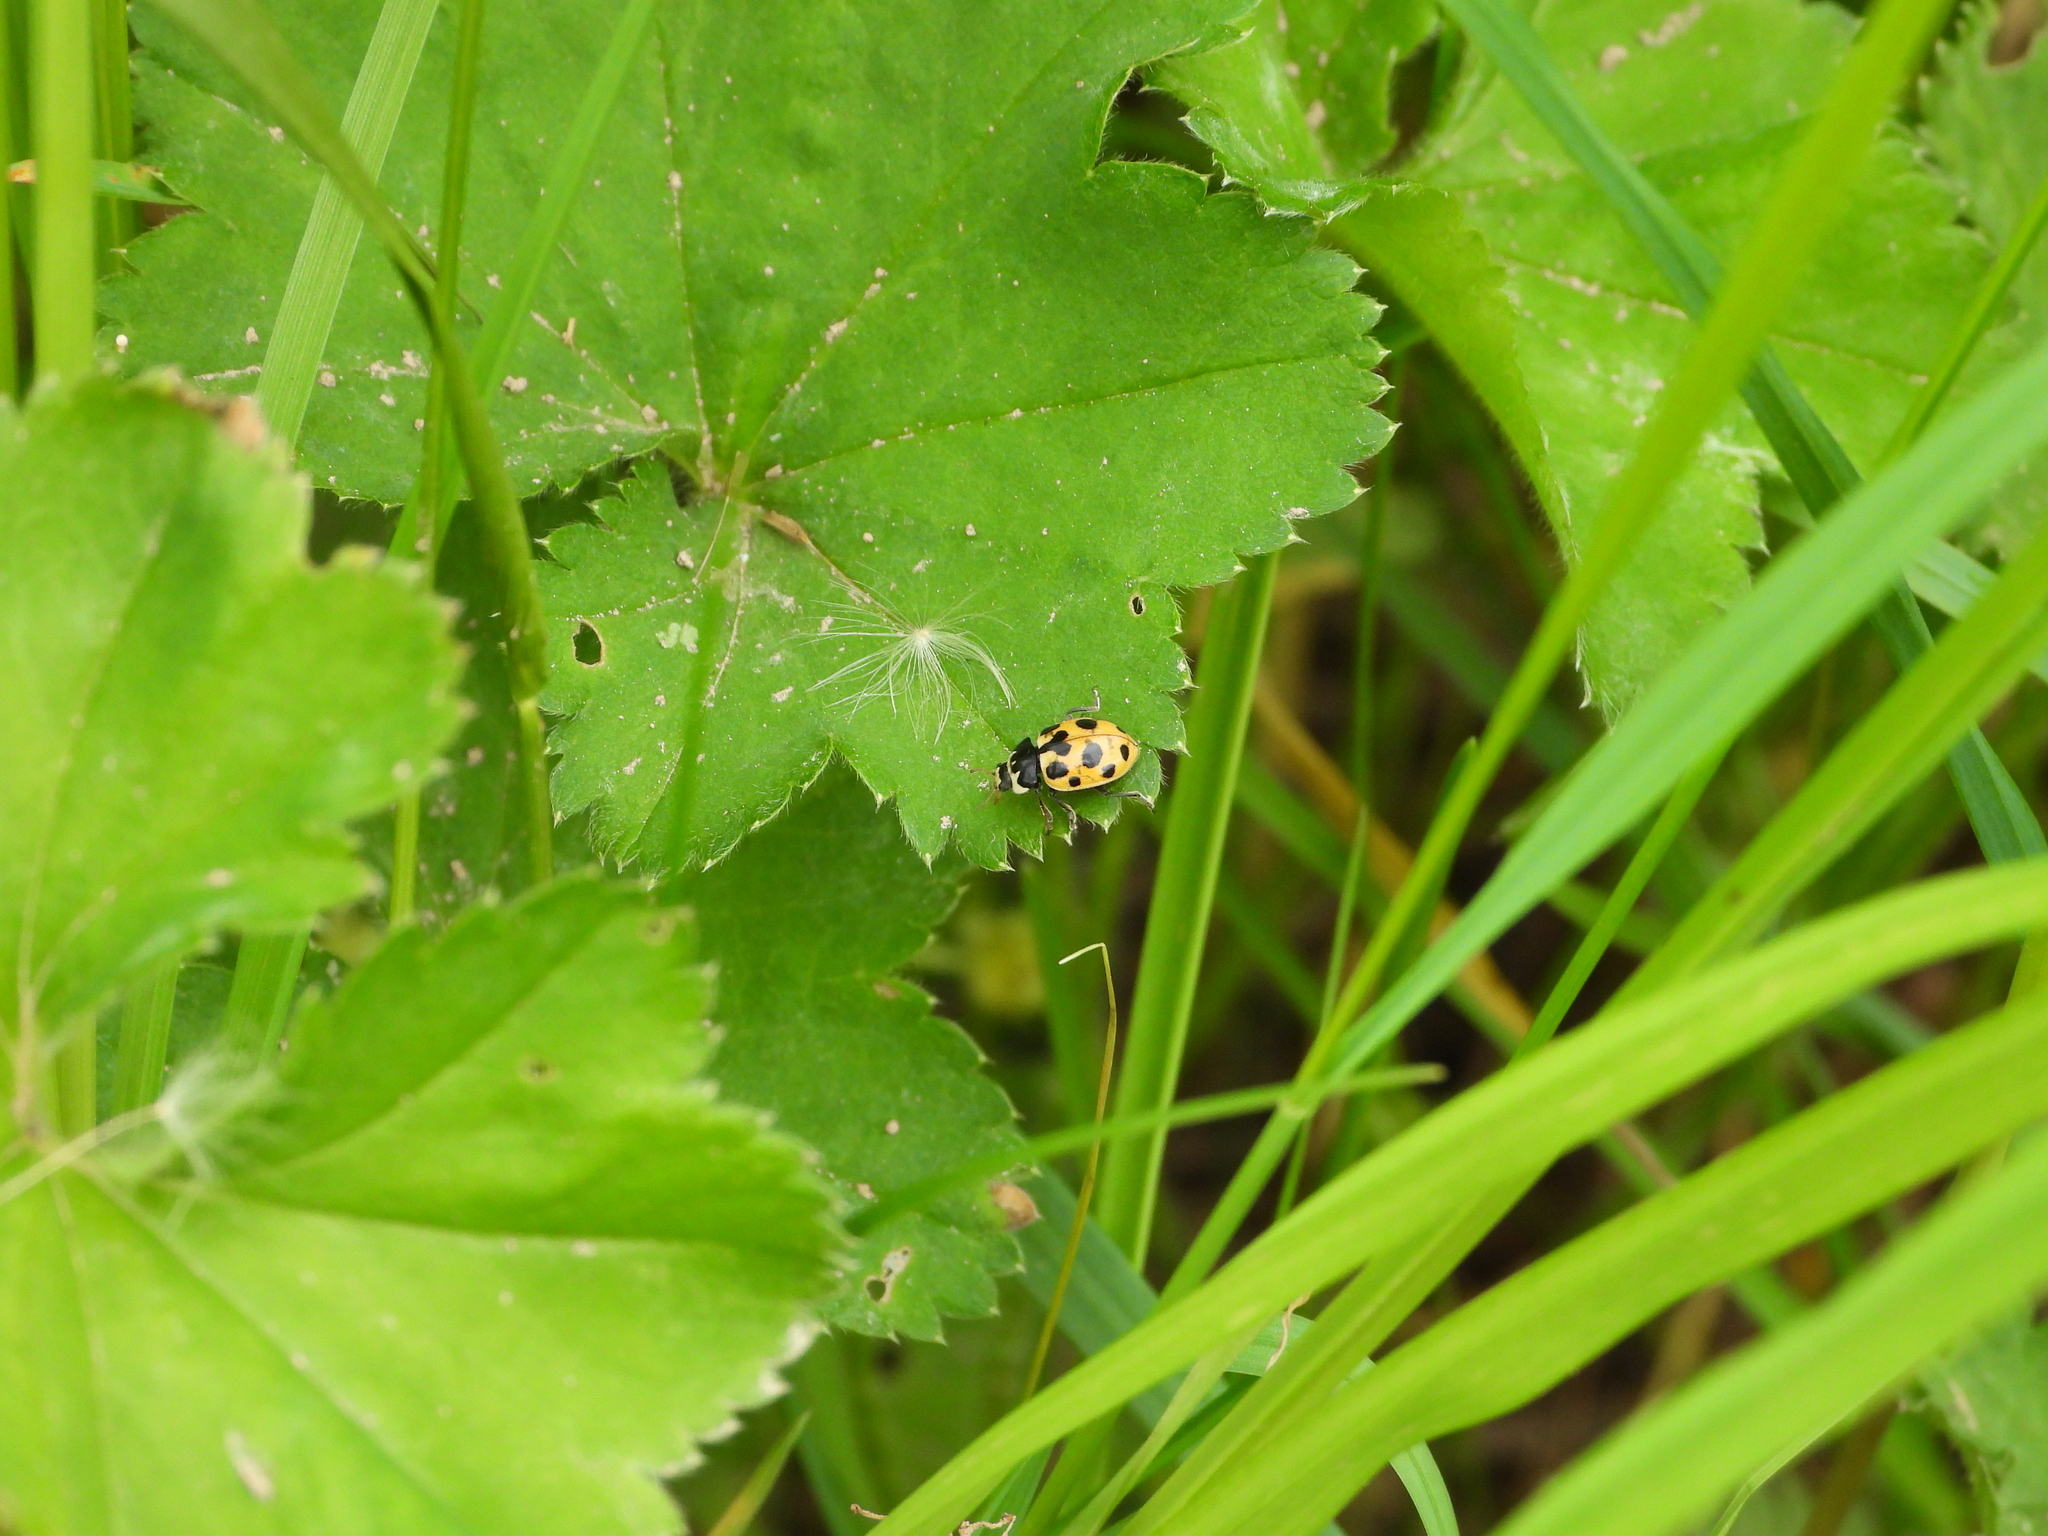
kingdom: Animalia
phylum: Arthropoda
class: Insecta
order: Coleoptera
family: Coccinellidae
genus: Ceratomegilla
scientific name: Ceratomegilla notata
